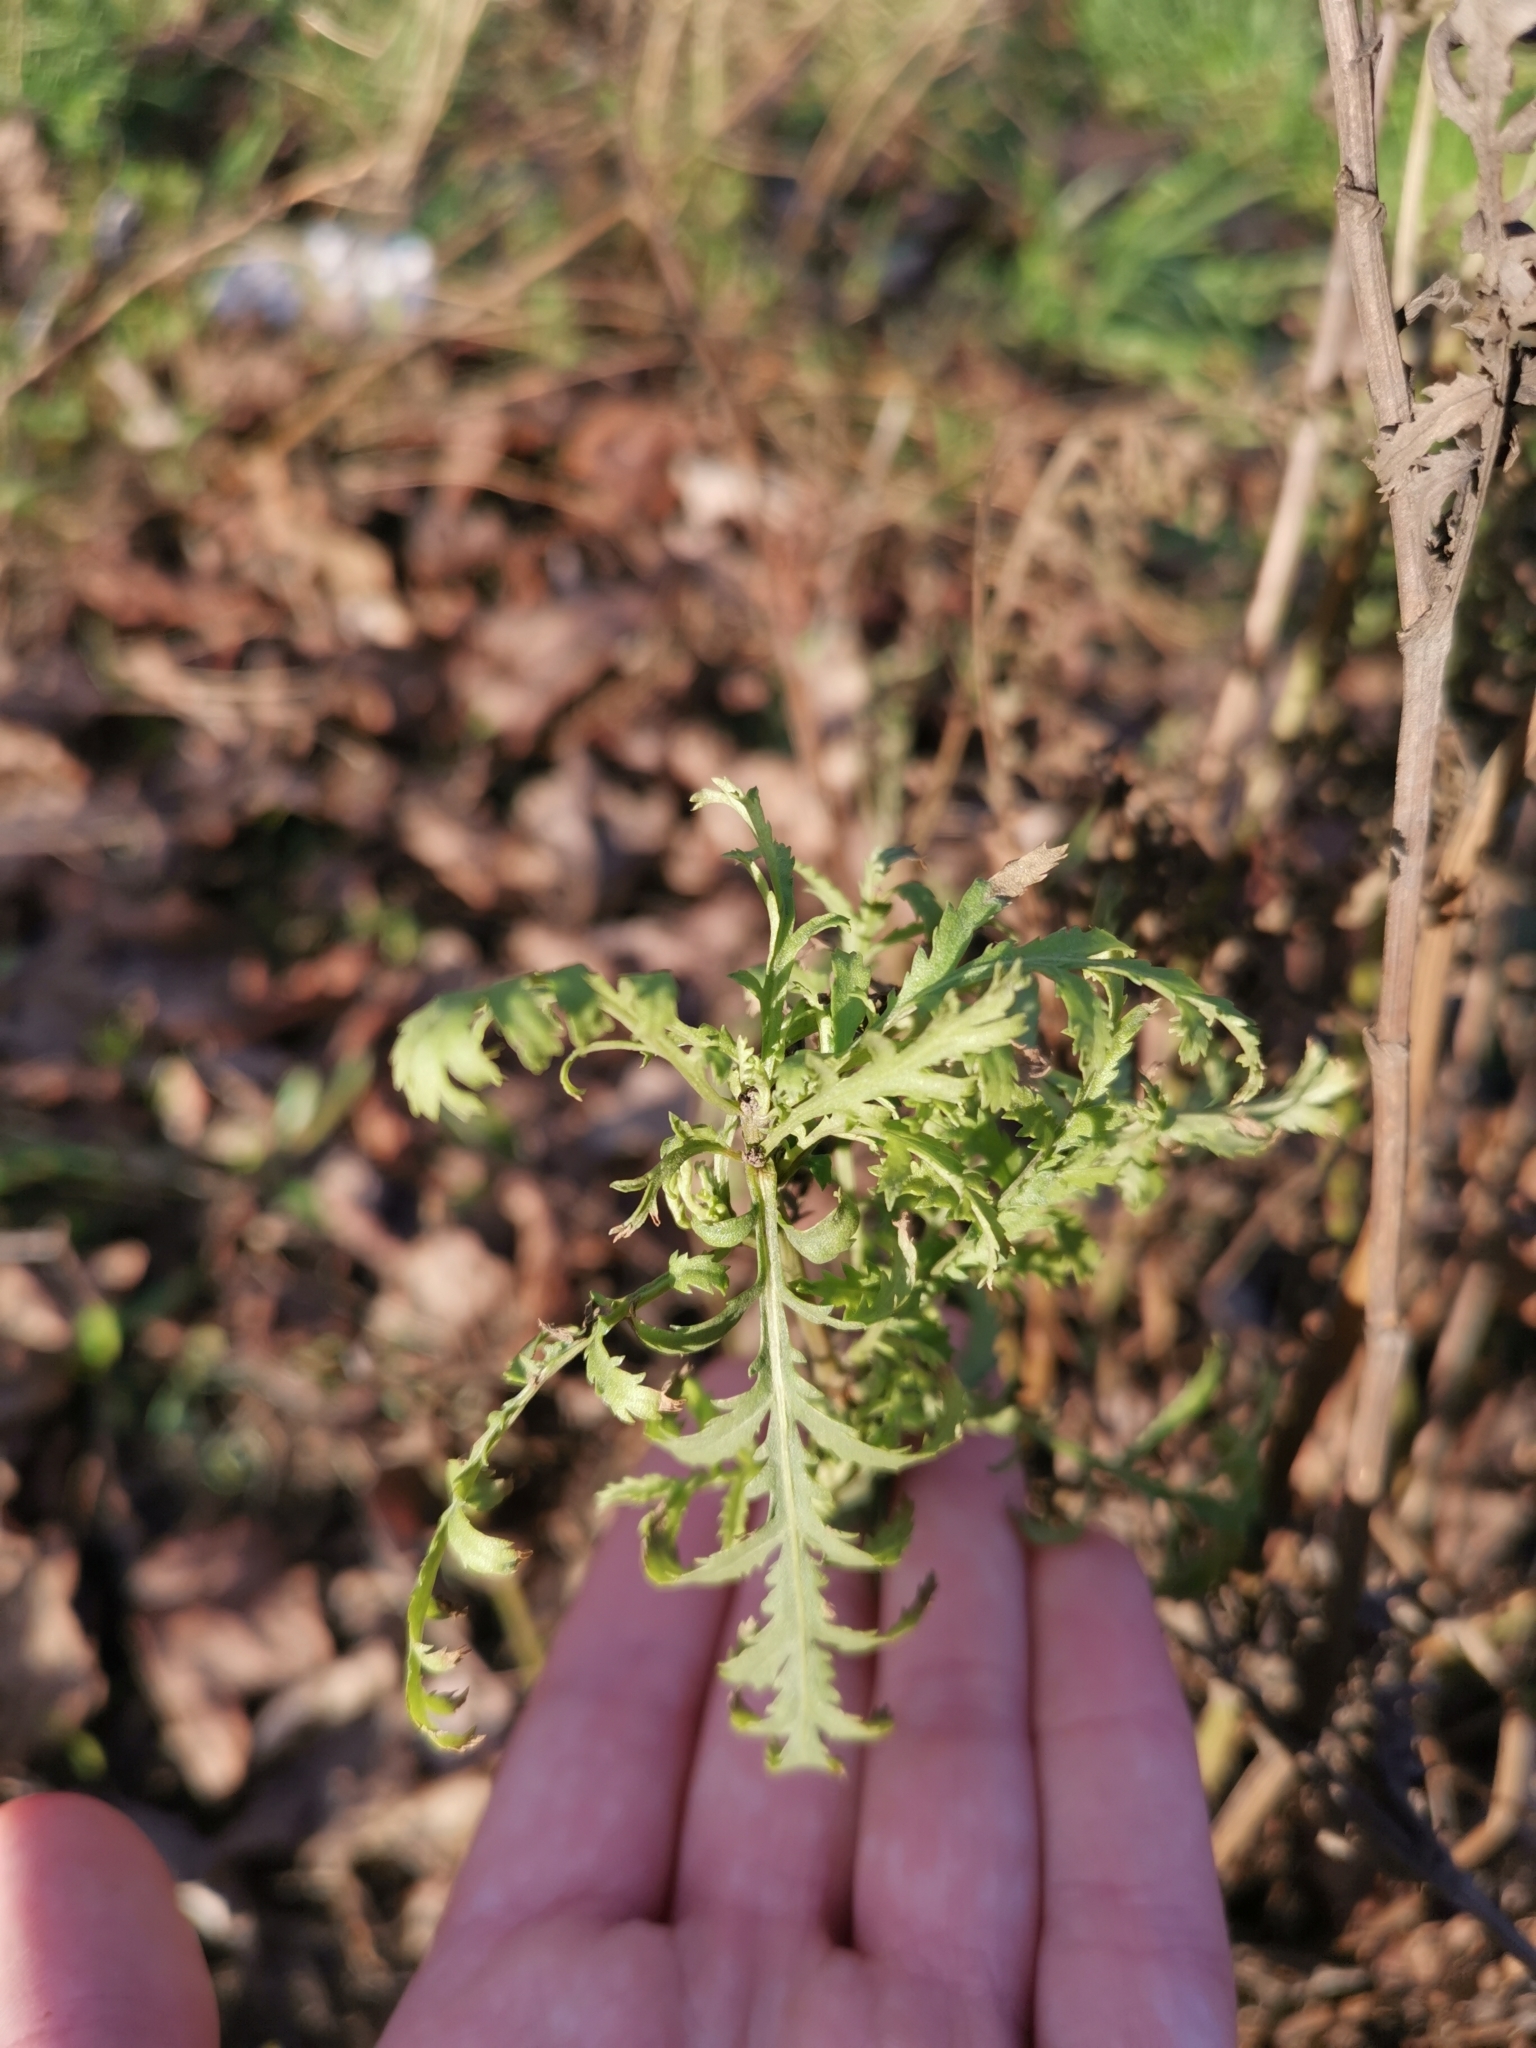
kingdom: Plantae
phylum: Tracheophyta
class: Magnoliopsida
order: Asterales
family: Asteraceae
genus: Tanacetum
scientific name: Tanacetum vulgare
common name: Common tansy
